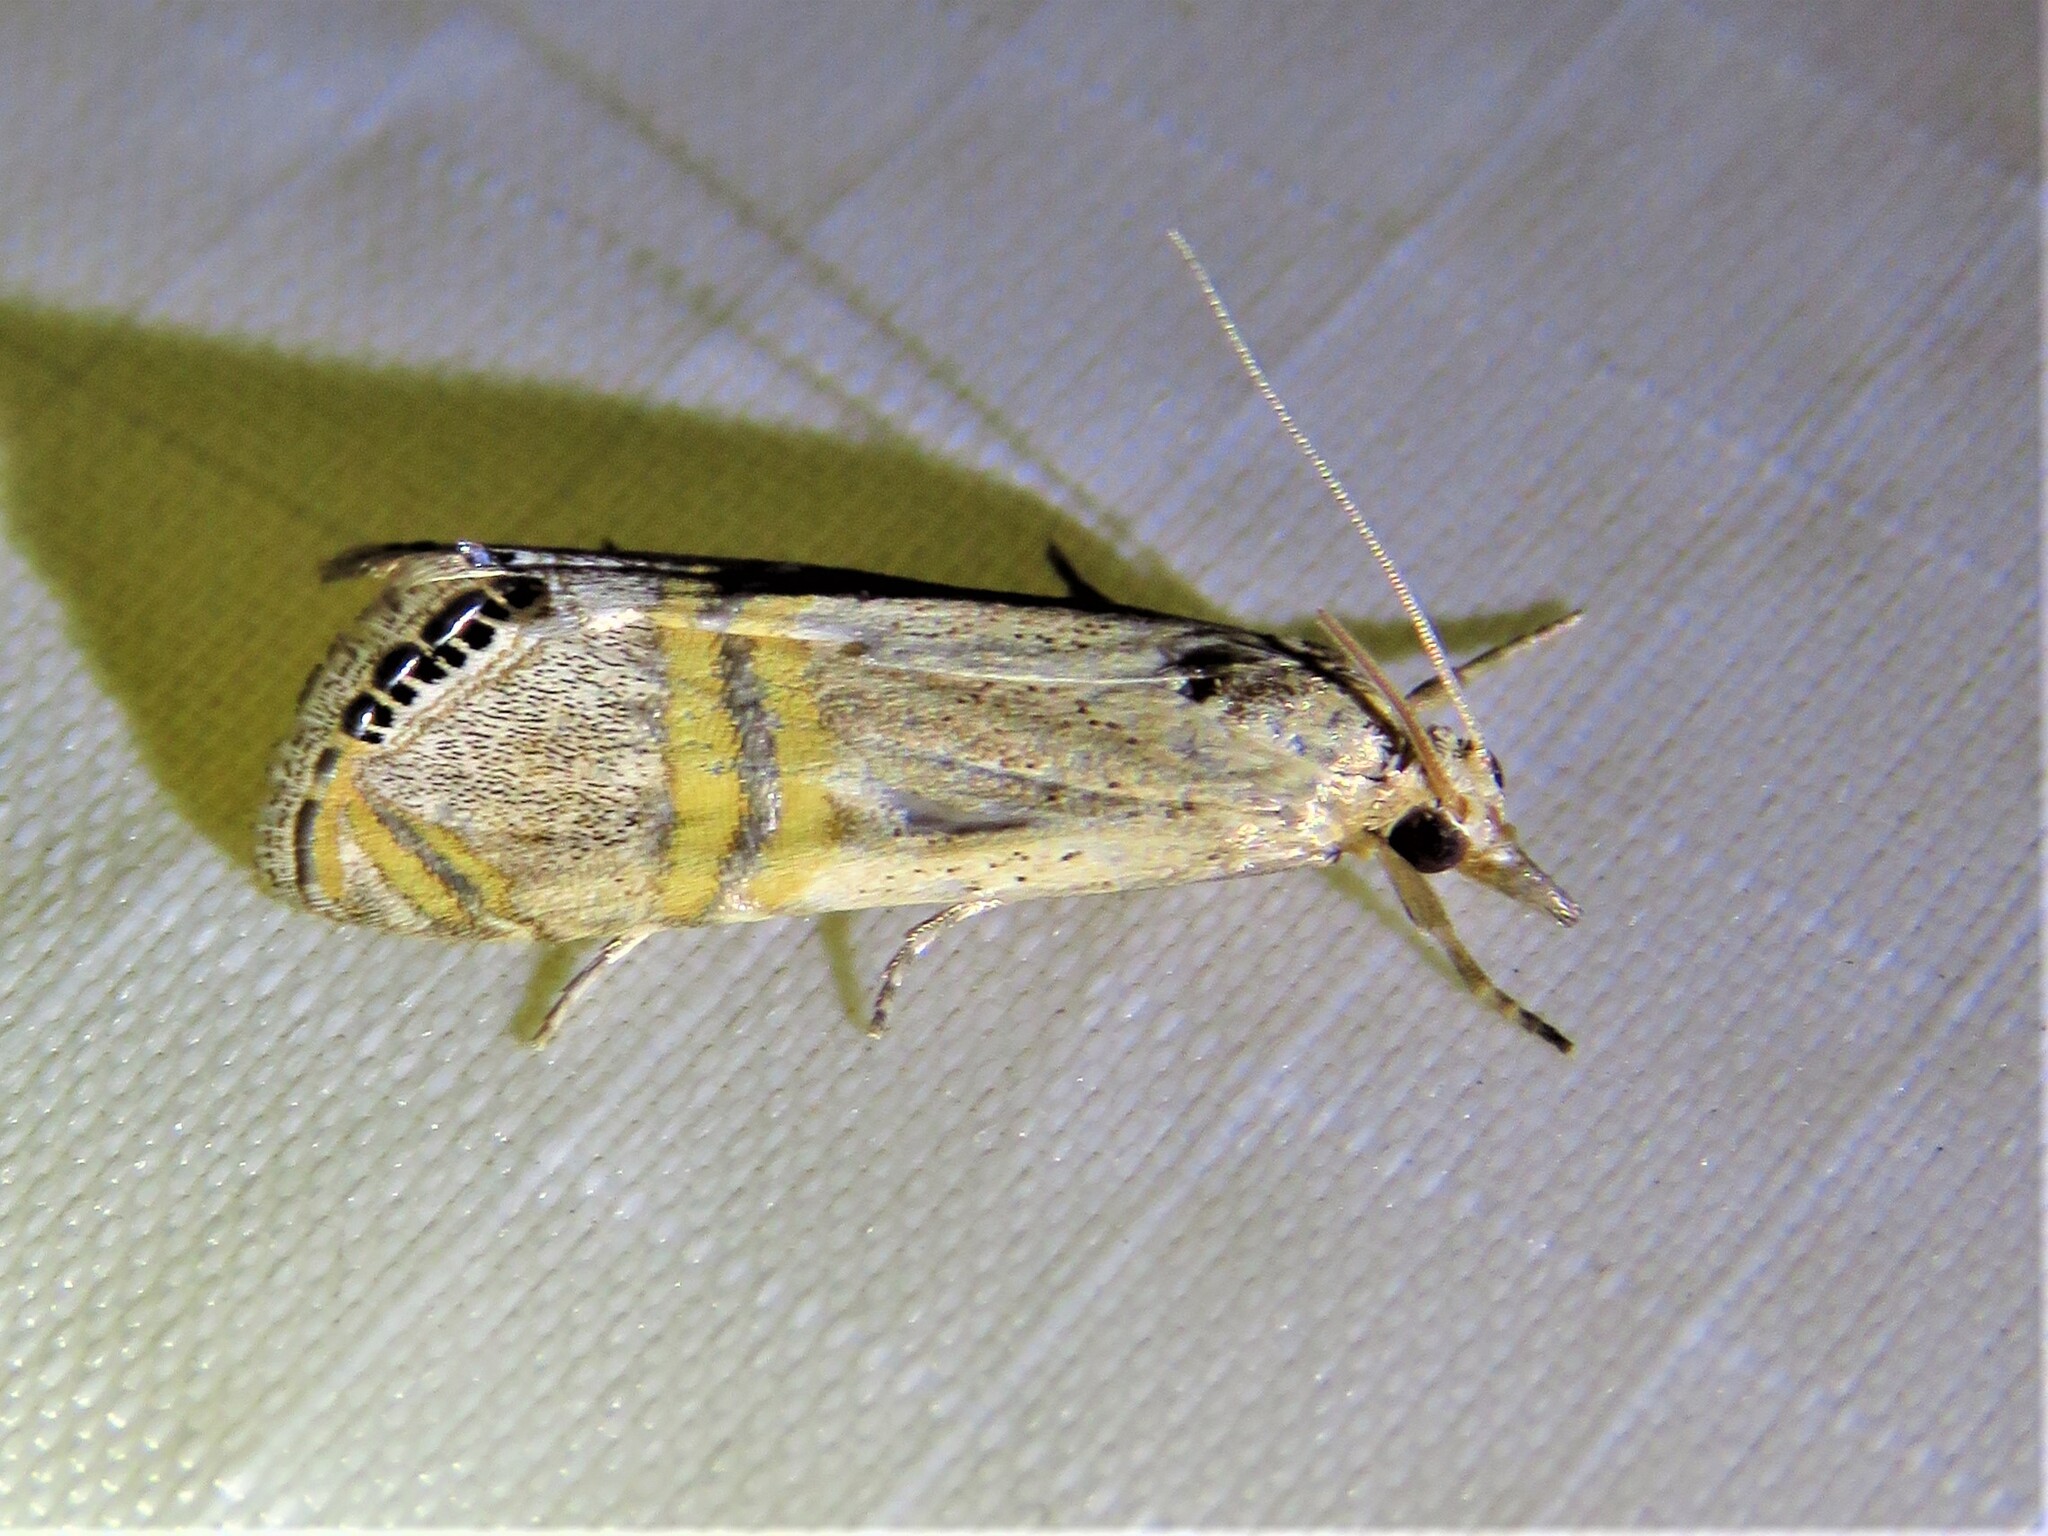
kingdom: Animalia
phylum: Arthropoda
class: Insecta
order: Lepidoptera
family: Crambidae
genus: Euchromius
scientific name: Euchromius ocellea
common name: Necklace veneer moth
